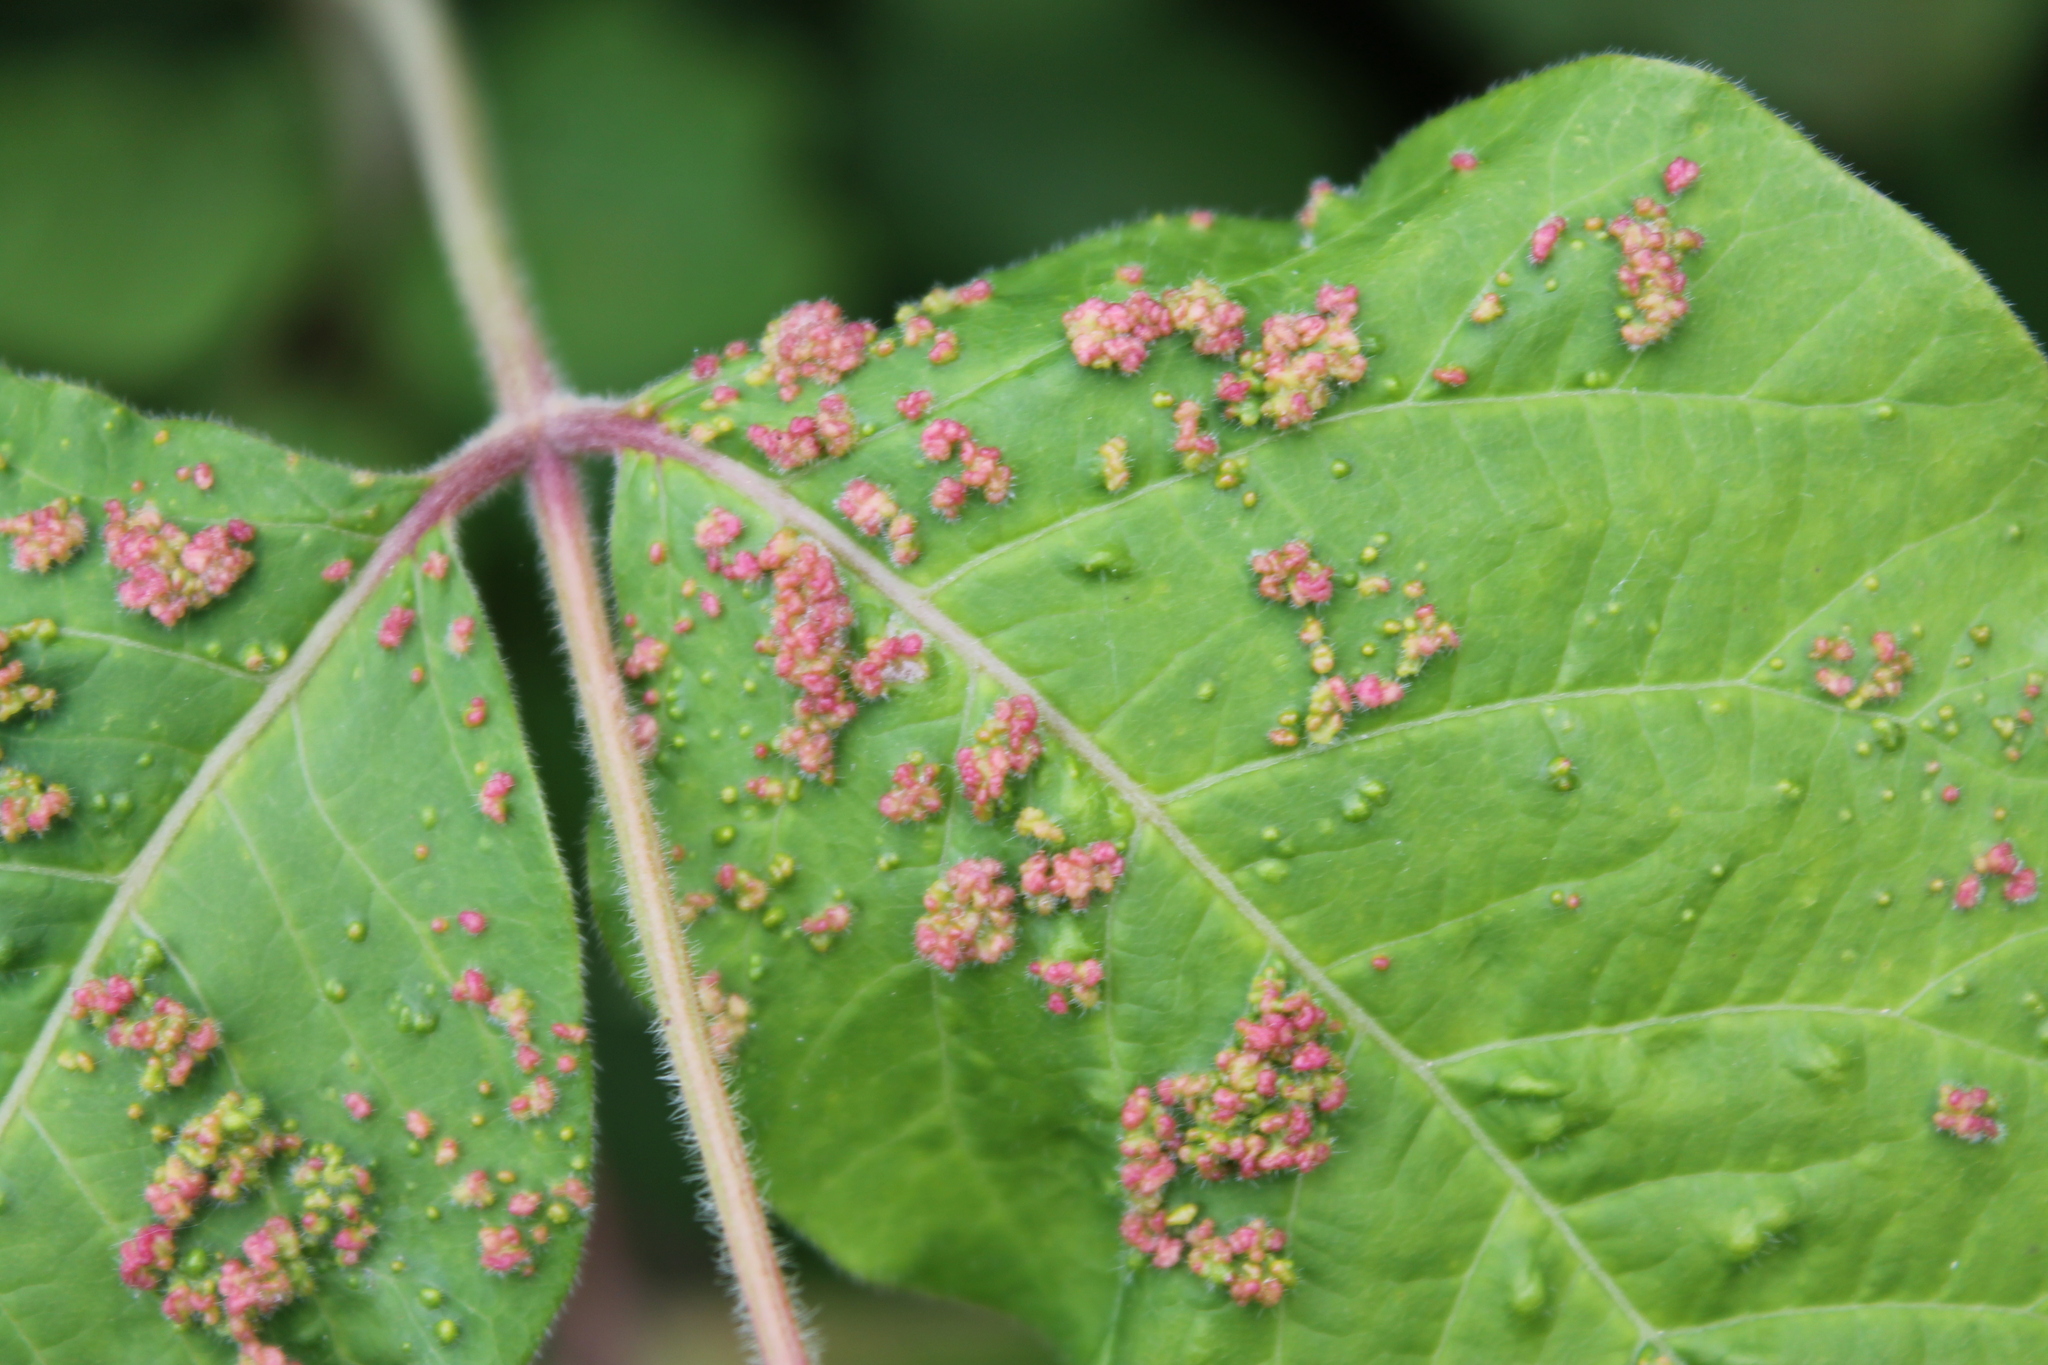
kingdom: Animalia
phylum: Arthropoda
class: Arachnida
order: Trombidiformes
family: Eriophyidae
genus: Aculops
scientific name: Aculops
